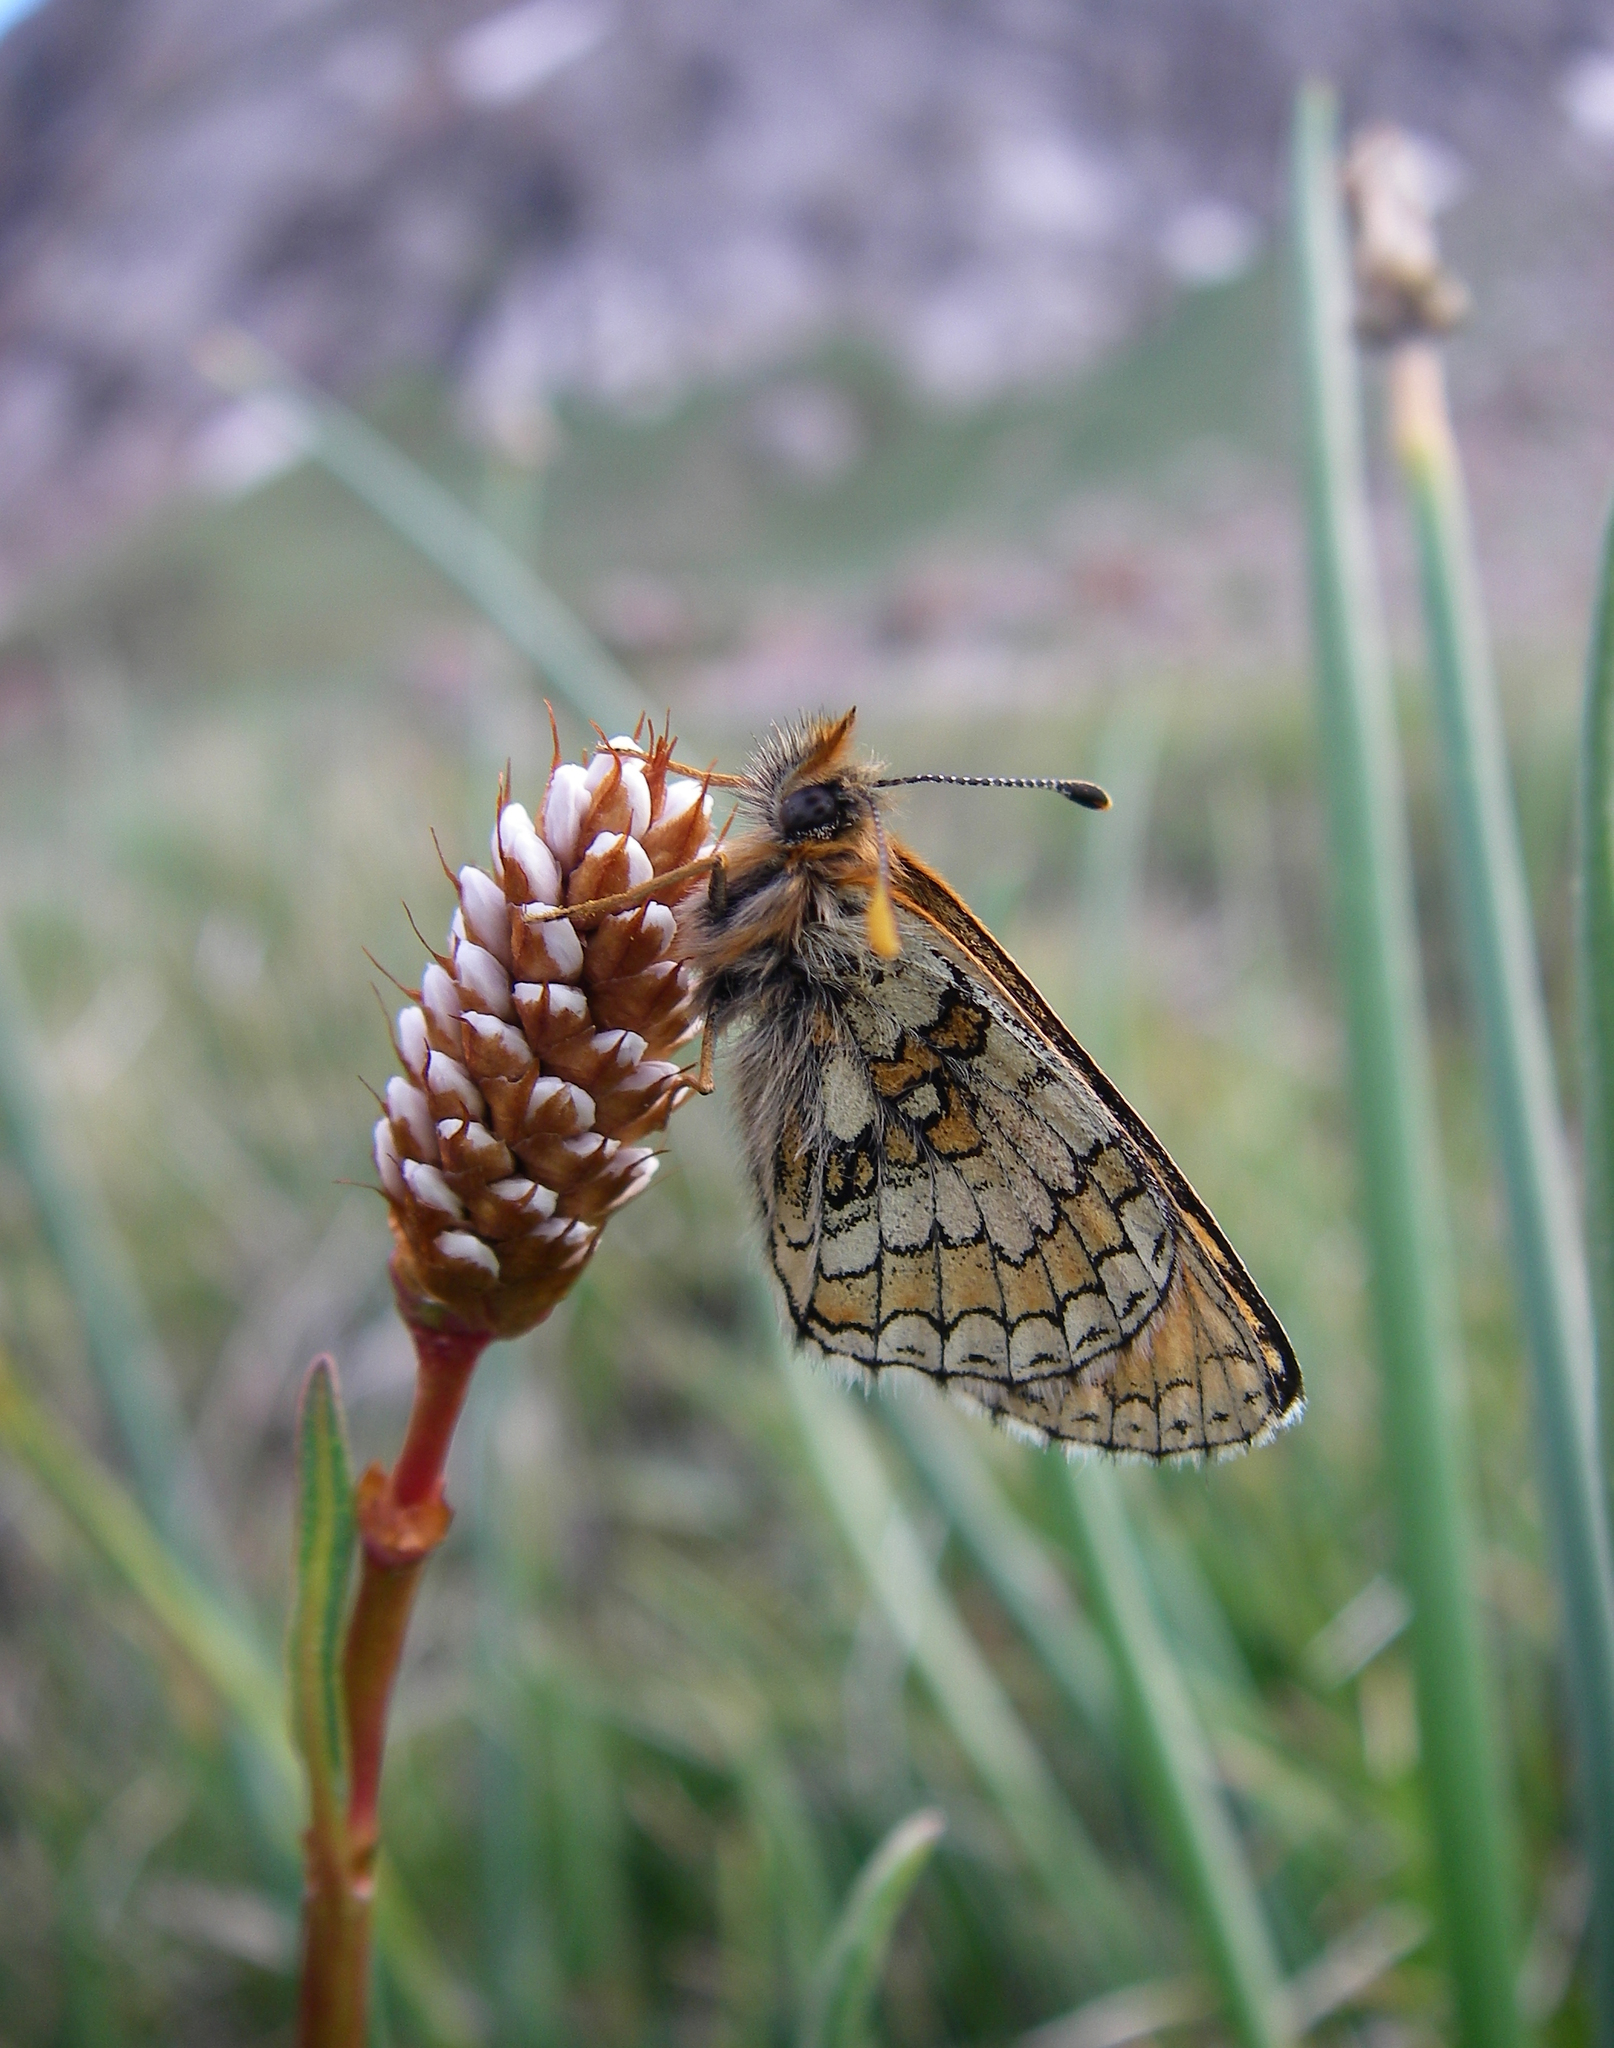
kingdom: Animalia
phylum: Arthropoda
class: Insecta
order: Lepidoptera
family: Nymphalidae
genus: Melitaea
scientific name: Melitaea turanica
